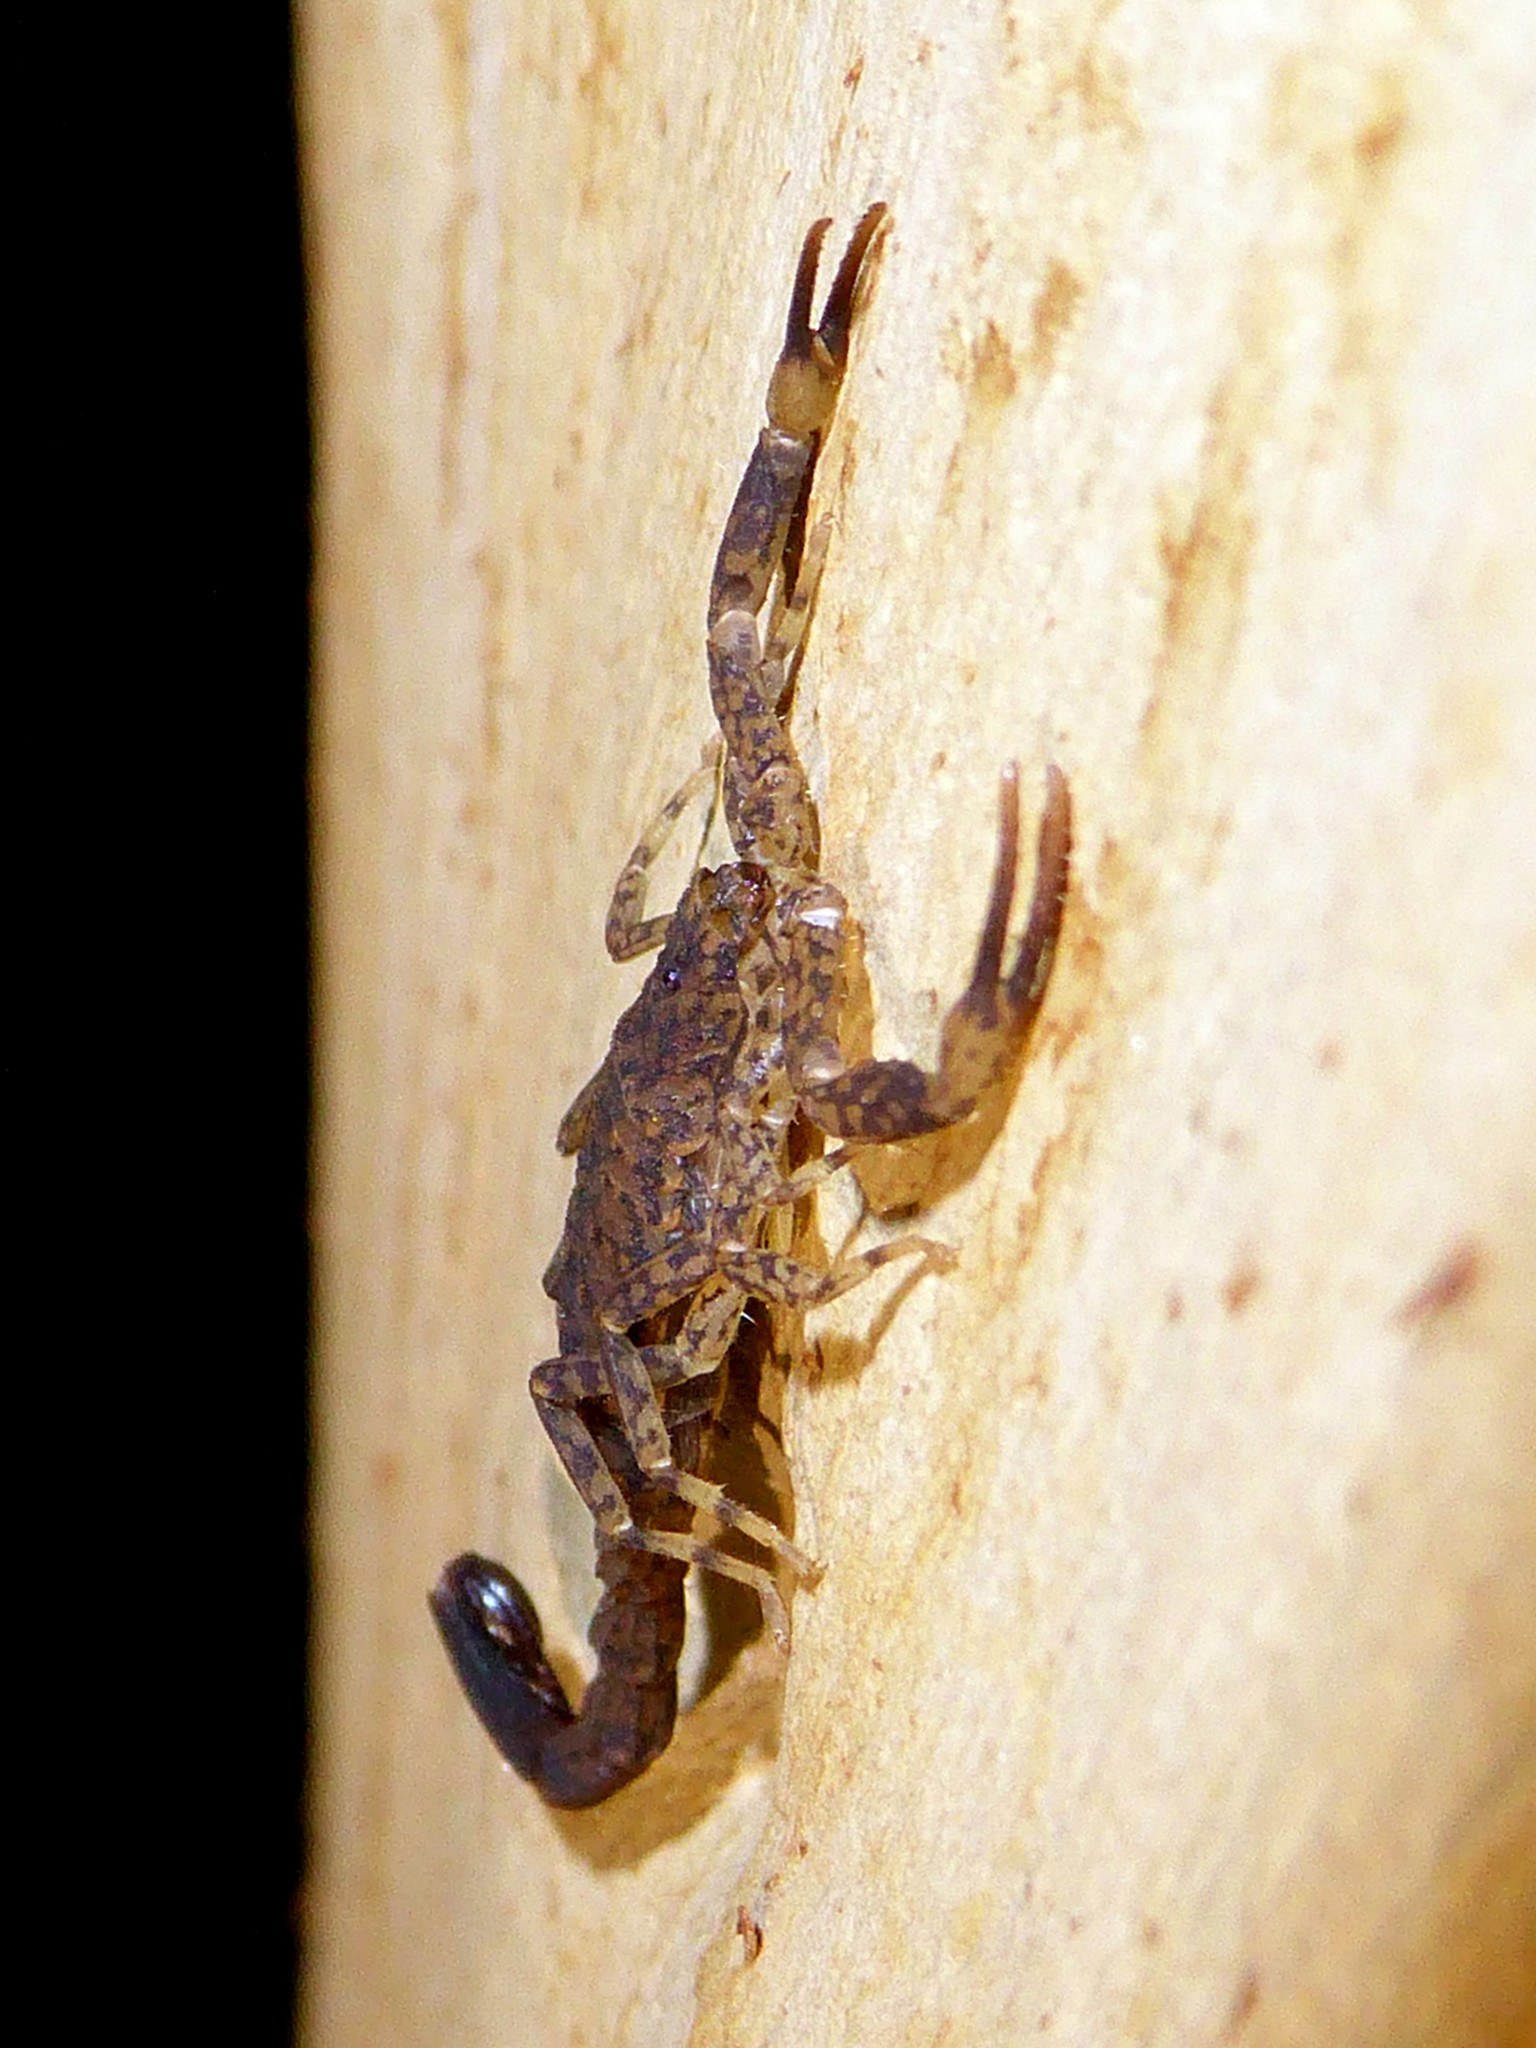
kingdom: Animalia
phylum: Arthropoda
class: Arachnida
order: Scorpiones
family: Buthidae
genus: Lychas
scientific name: Lychas marmoreus
